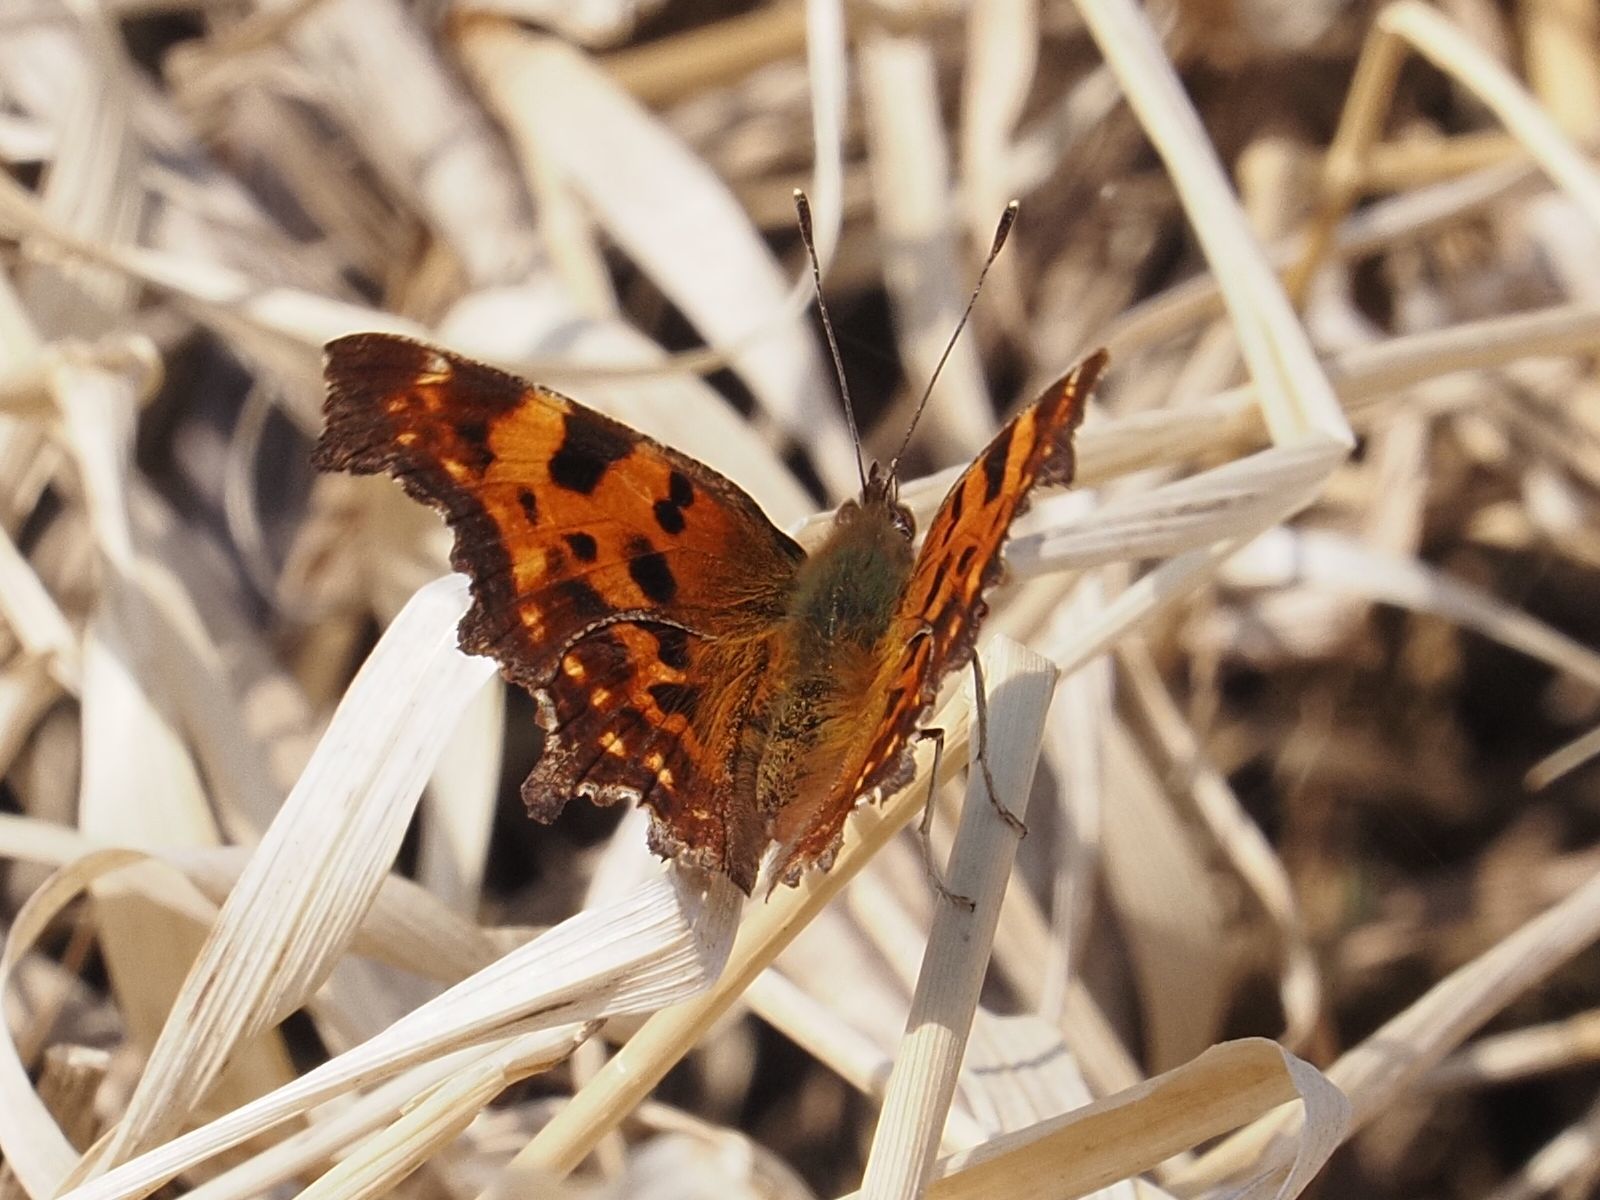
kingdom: Animalia
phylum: Arthropoda
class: Insecta
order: Lepidoptera
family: Nymphalidae
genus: Polygonia
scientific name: Polygonia c-album
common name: Comma
